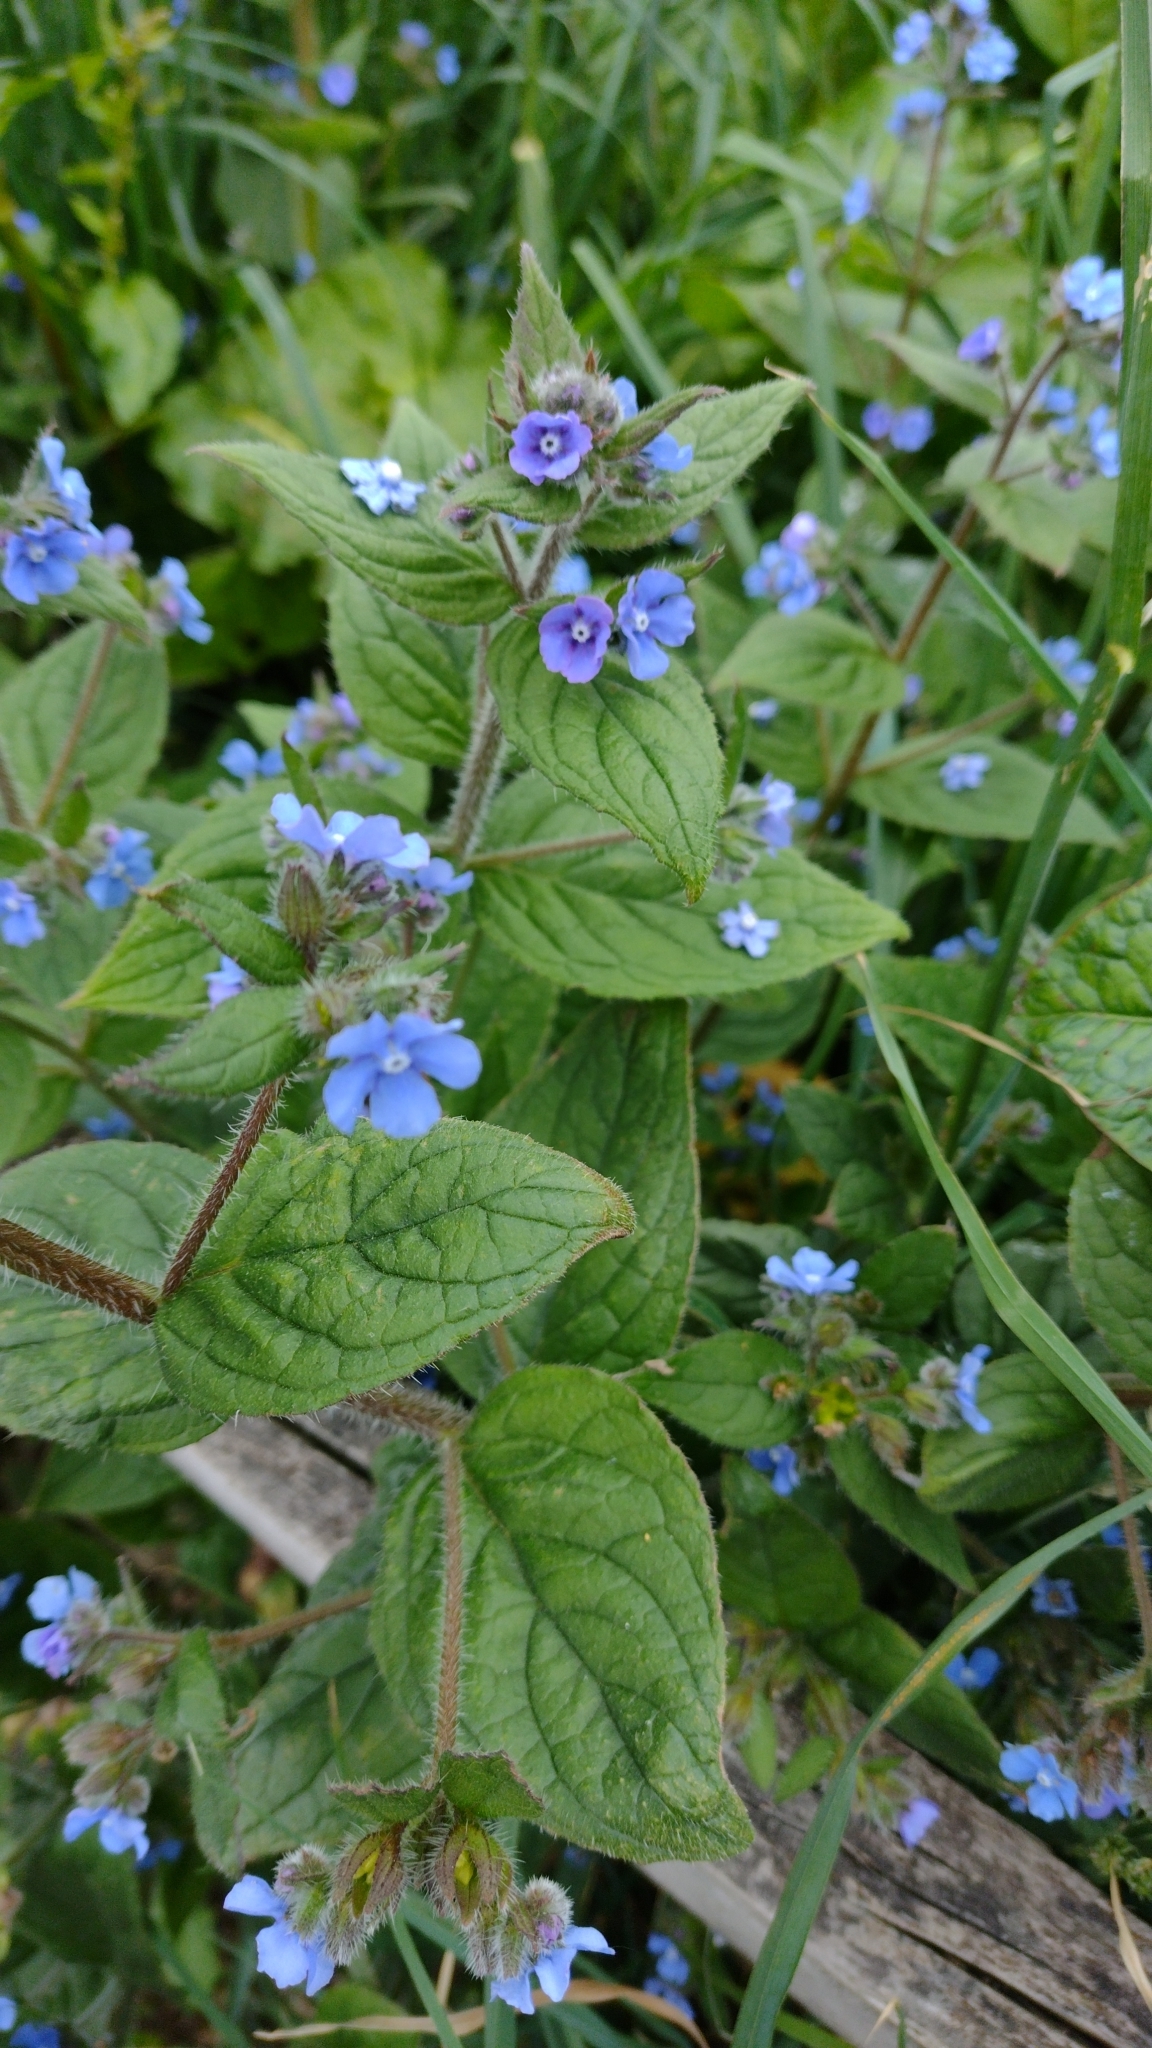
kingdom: Plantae
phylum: Tracheophyta
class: Magnoliopsida
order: Boraginales
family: Boraginaceae
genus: Pentaglottis
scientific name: Pentaglottis sempervirens
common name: Green alkanet
